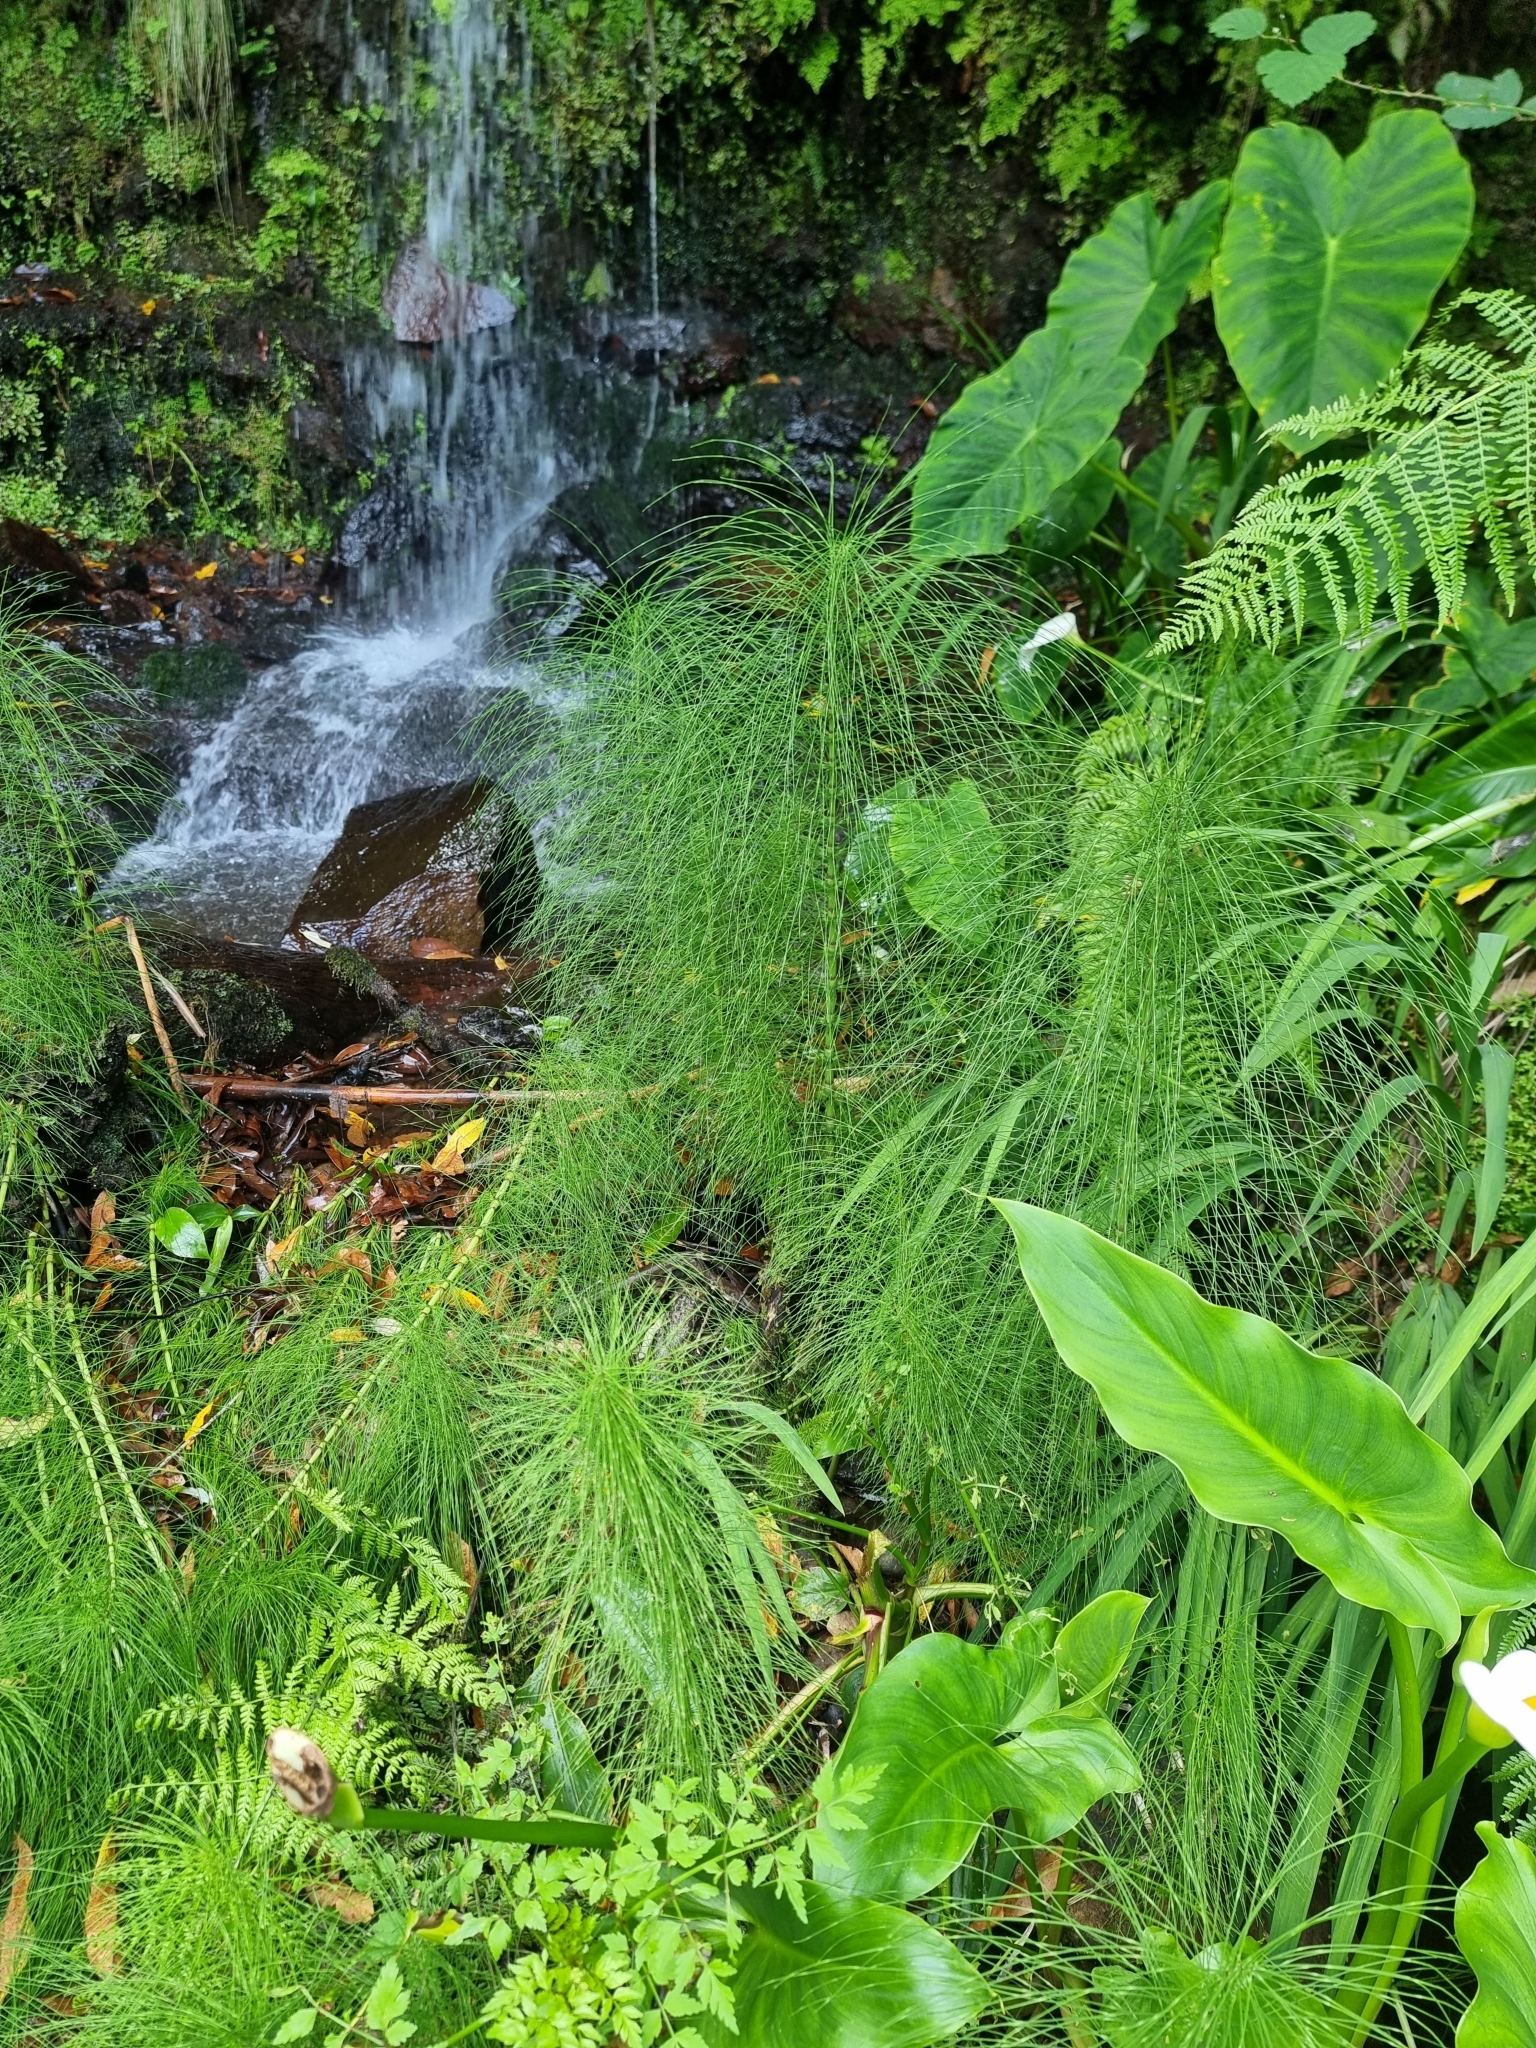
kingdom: Plantae
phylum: Tracheophyta
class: Polypodiopsida
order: Equisetales
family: Equisetaceae
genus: Equisetum
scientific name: Equisetum telmateia
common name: Great horsetail
